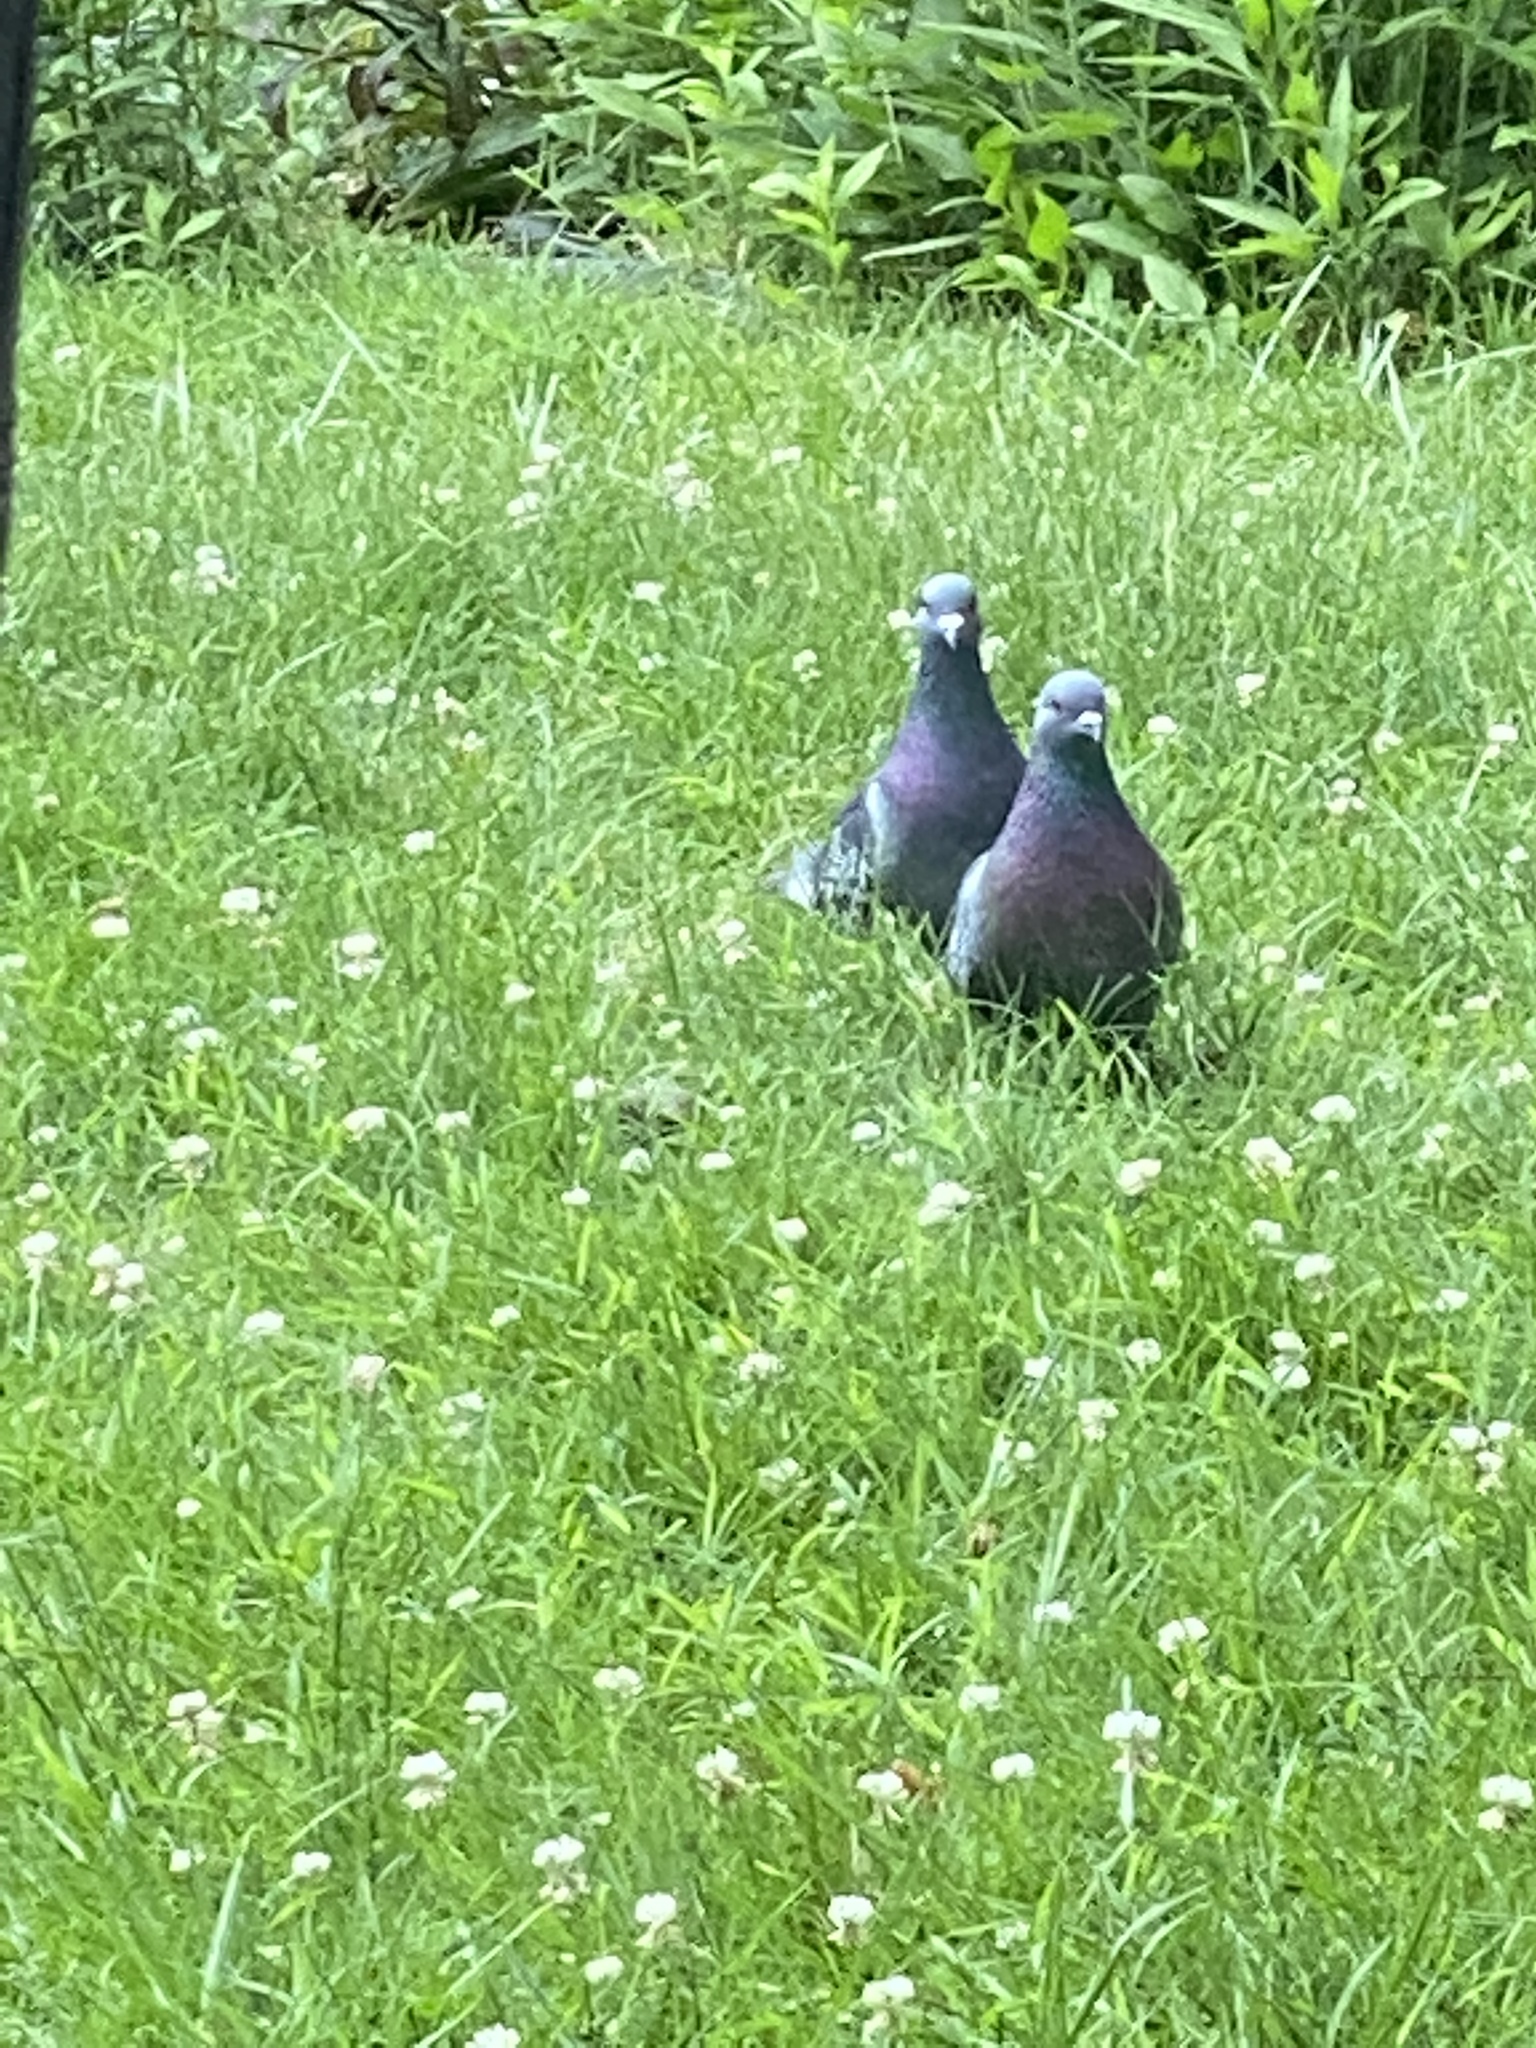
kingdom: Animalia
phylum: Chordata
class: Aves
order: Columbiformes
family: Columbidae
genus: Columba
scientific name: Columba livia
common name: Rock pigeon
